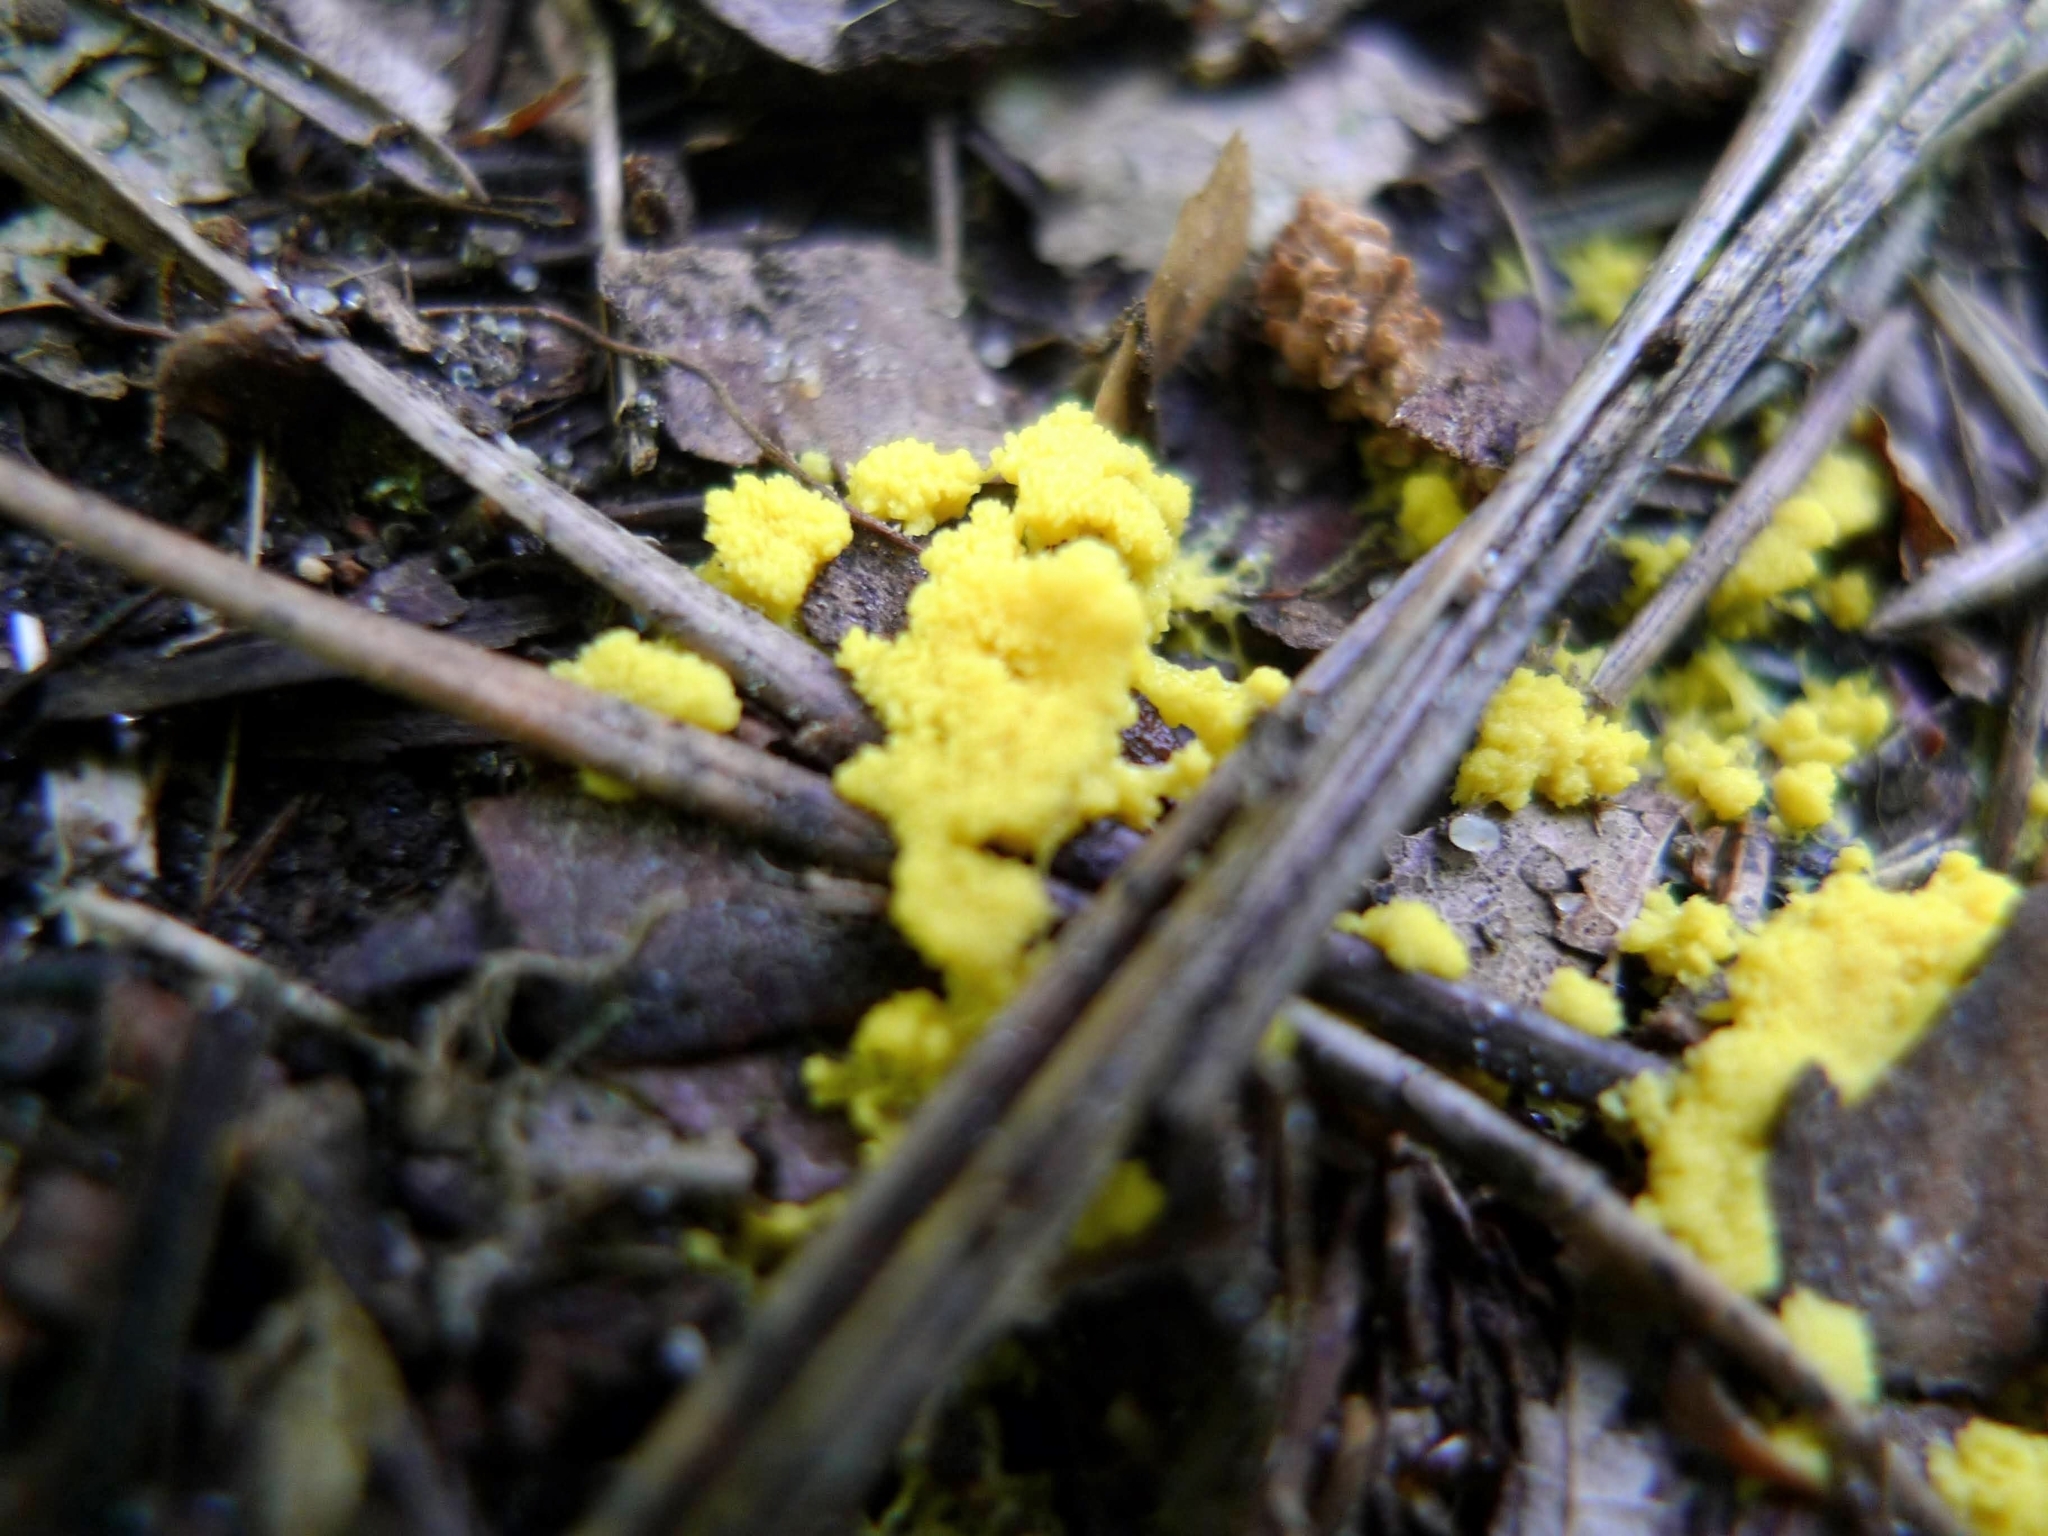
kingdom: Protozoa
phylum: Mycetozoa
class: Myxomycetes
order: Physarales
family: Physaraceae
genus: Fuligo
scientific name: Fuligo septica
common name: Dog vomit slime mold
